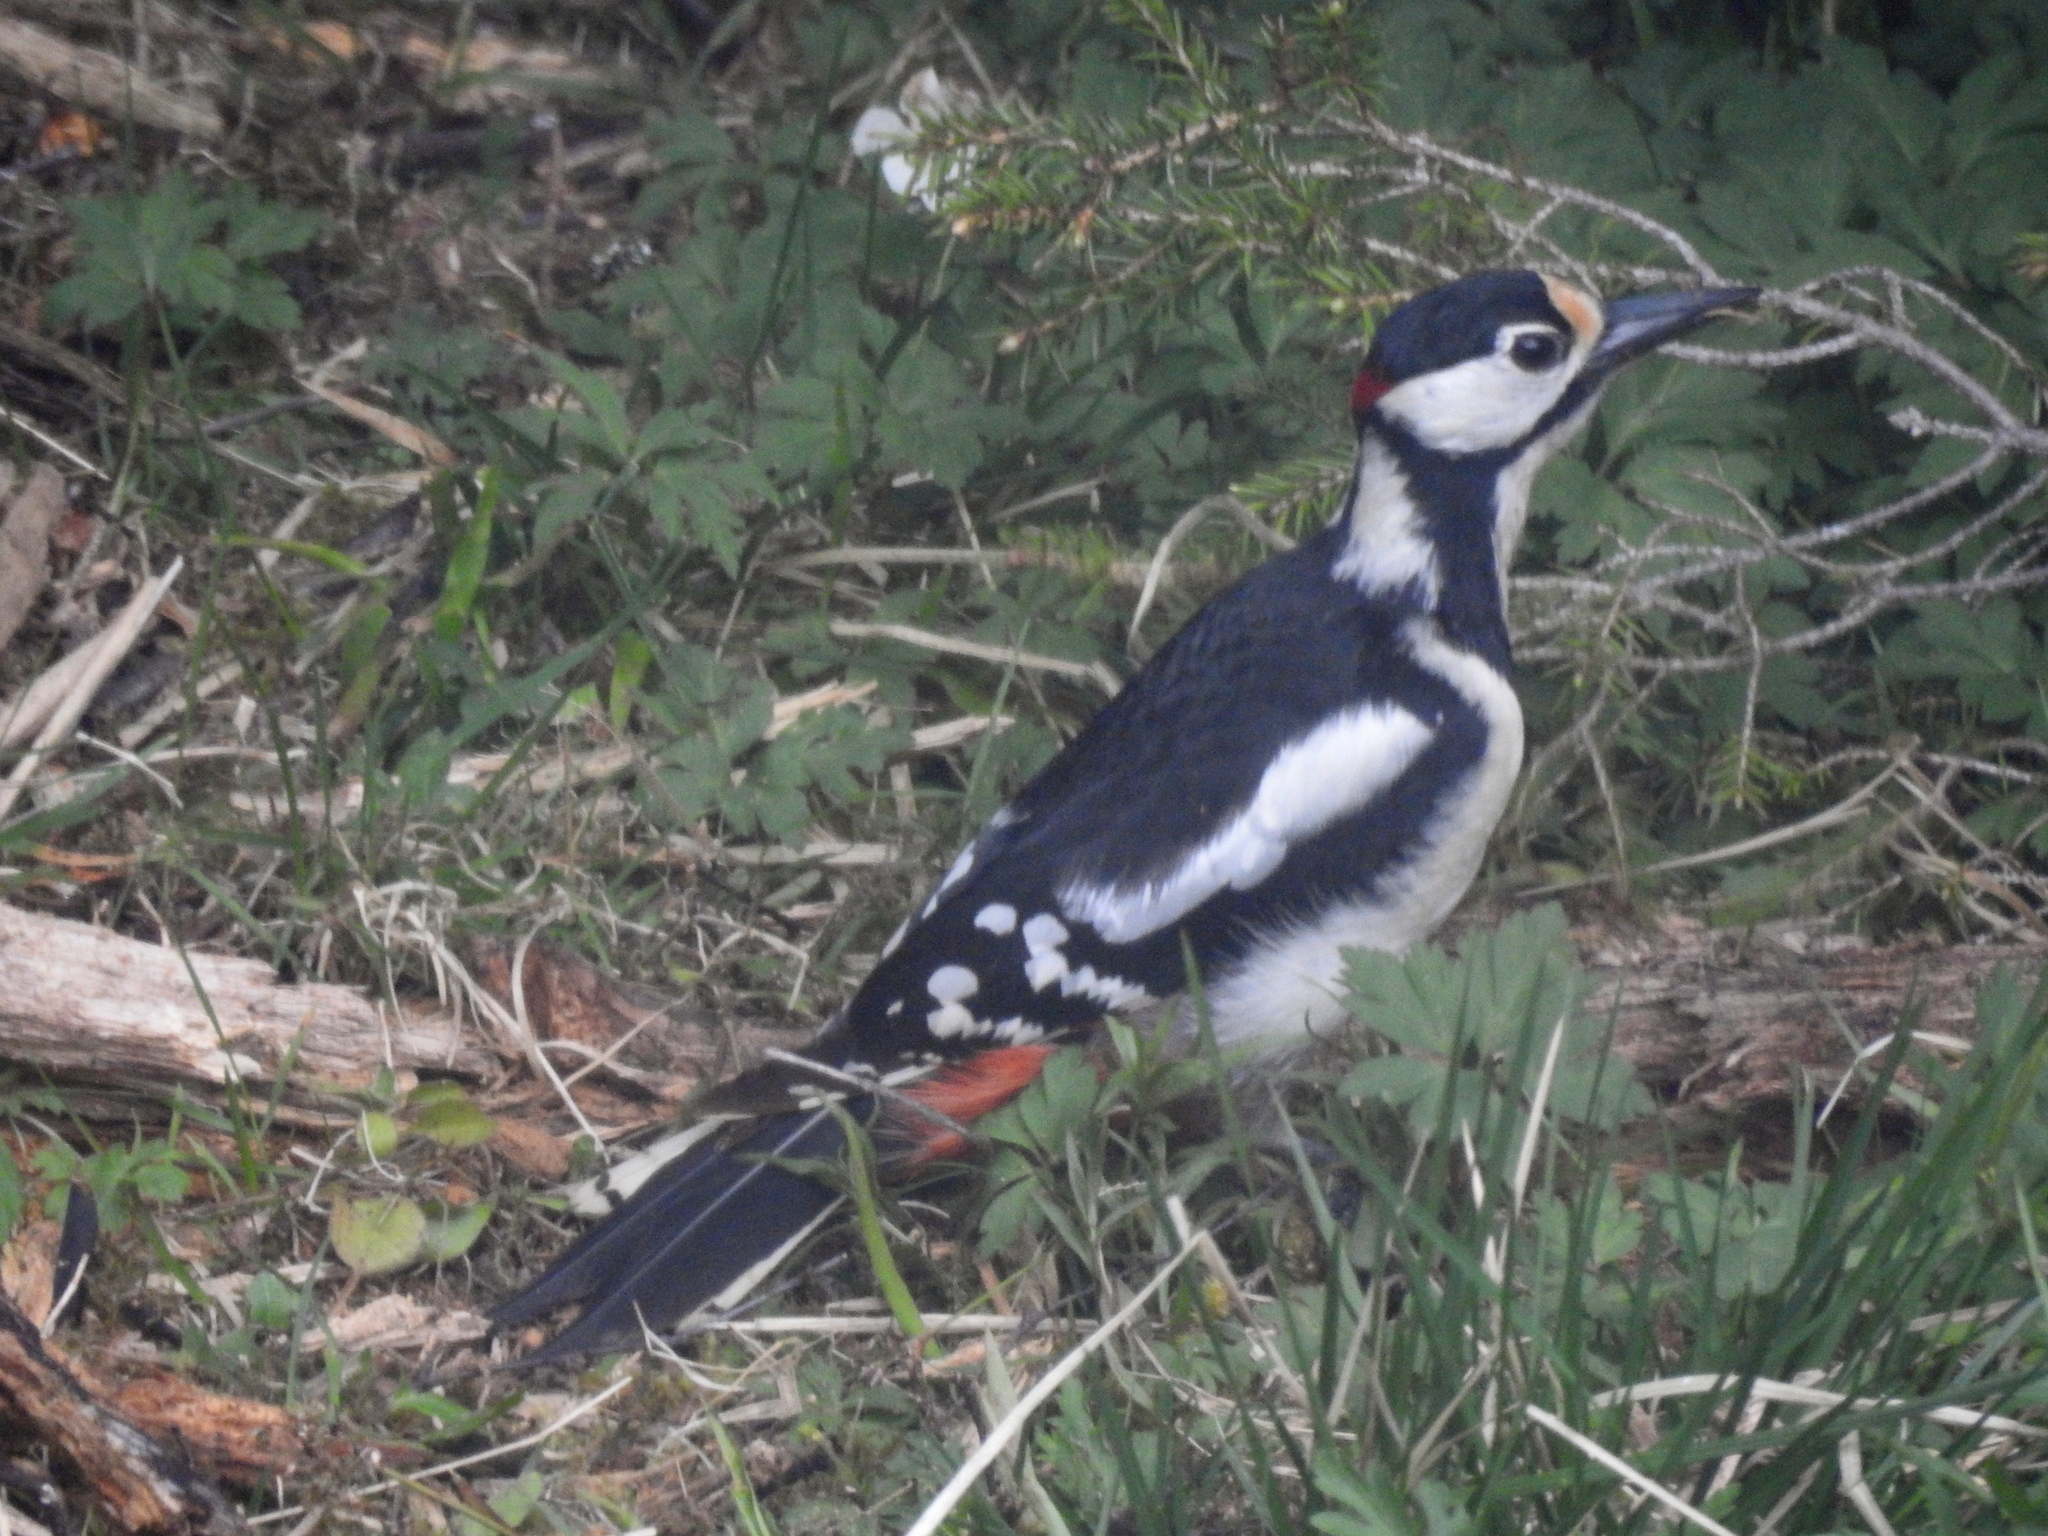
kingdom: Animalia
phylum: Chordata
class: Aves
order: Piciformes
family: Picidae
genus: Dendrocopos
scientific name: Dendrocopos major
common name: Great spotted woodpecker
